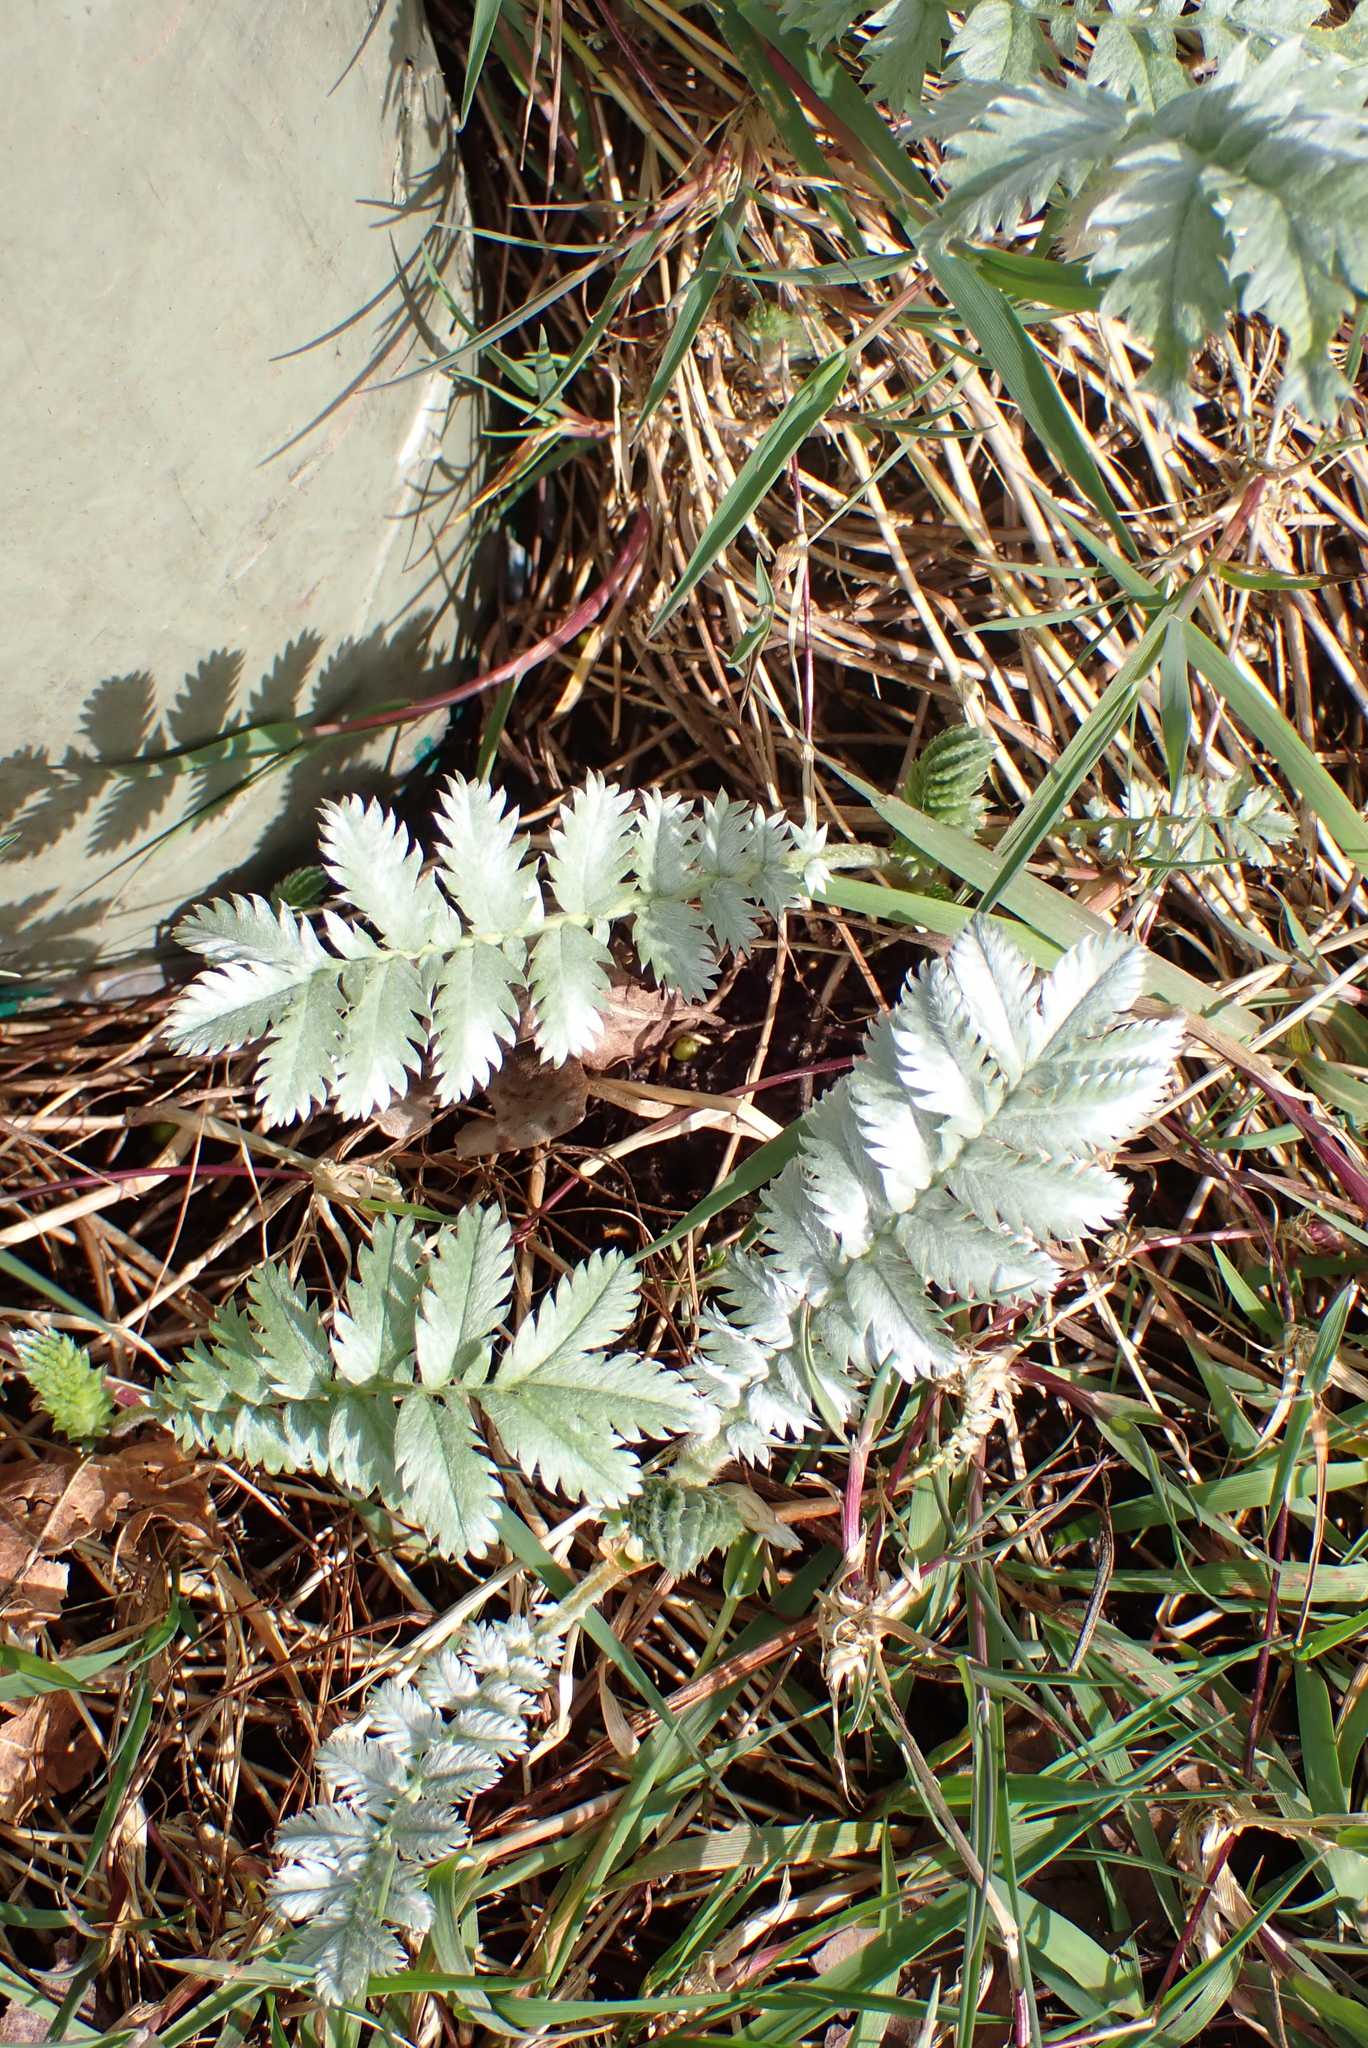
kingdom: Plantae
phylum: Tracheophyta
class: Magnoliopsida
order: Rosales
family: Rosaceae
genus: Argentina
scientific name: Argentina anserina
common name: Common silverweed
